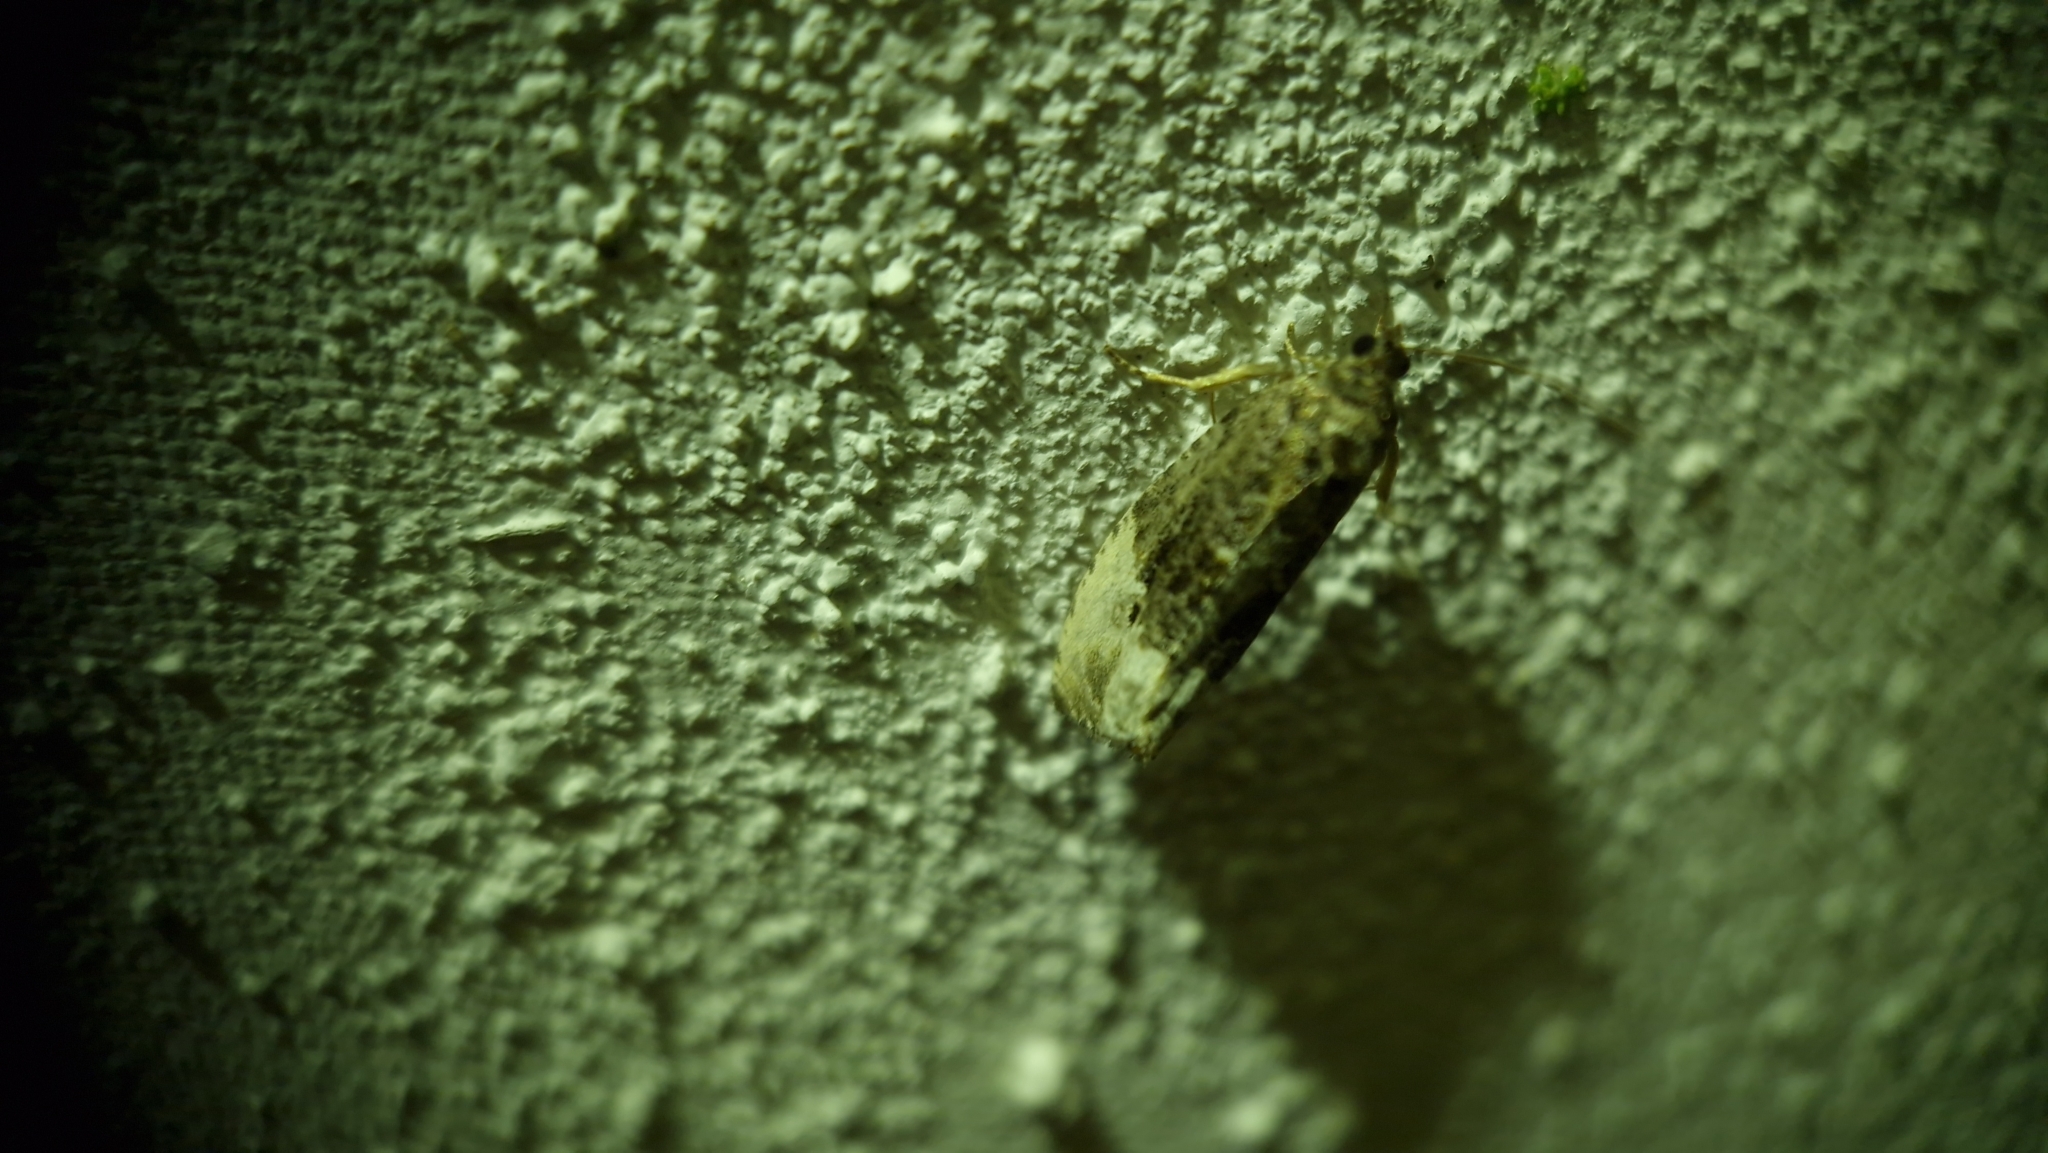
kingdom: Animalia
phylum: Arthropoda
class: Insecta
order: Lepidoptera
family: Tortricidae
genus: Hedya
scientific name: Hedya nubiferana
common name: Marbled orchard tortrix
